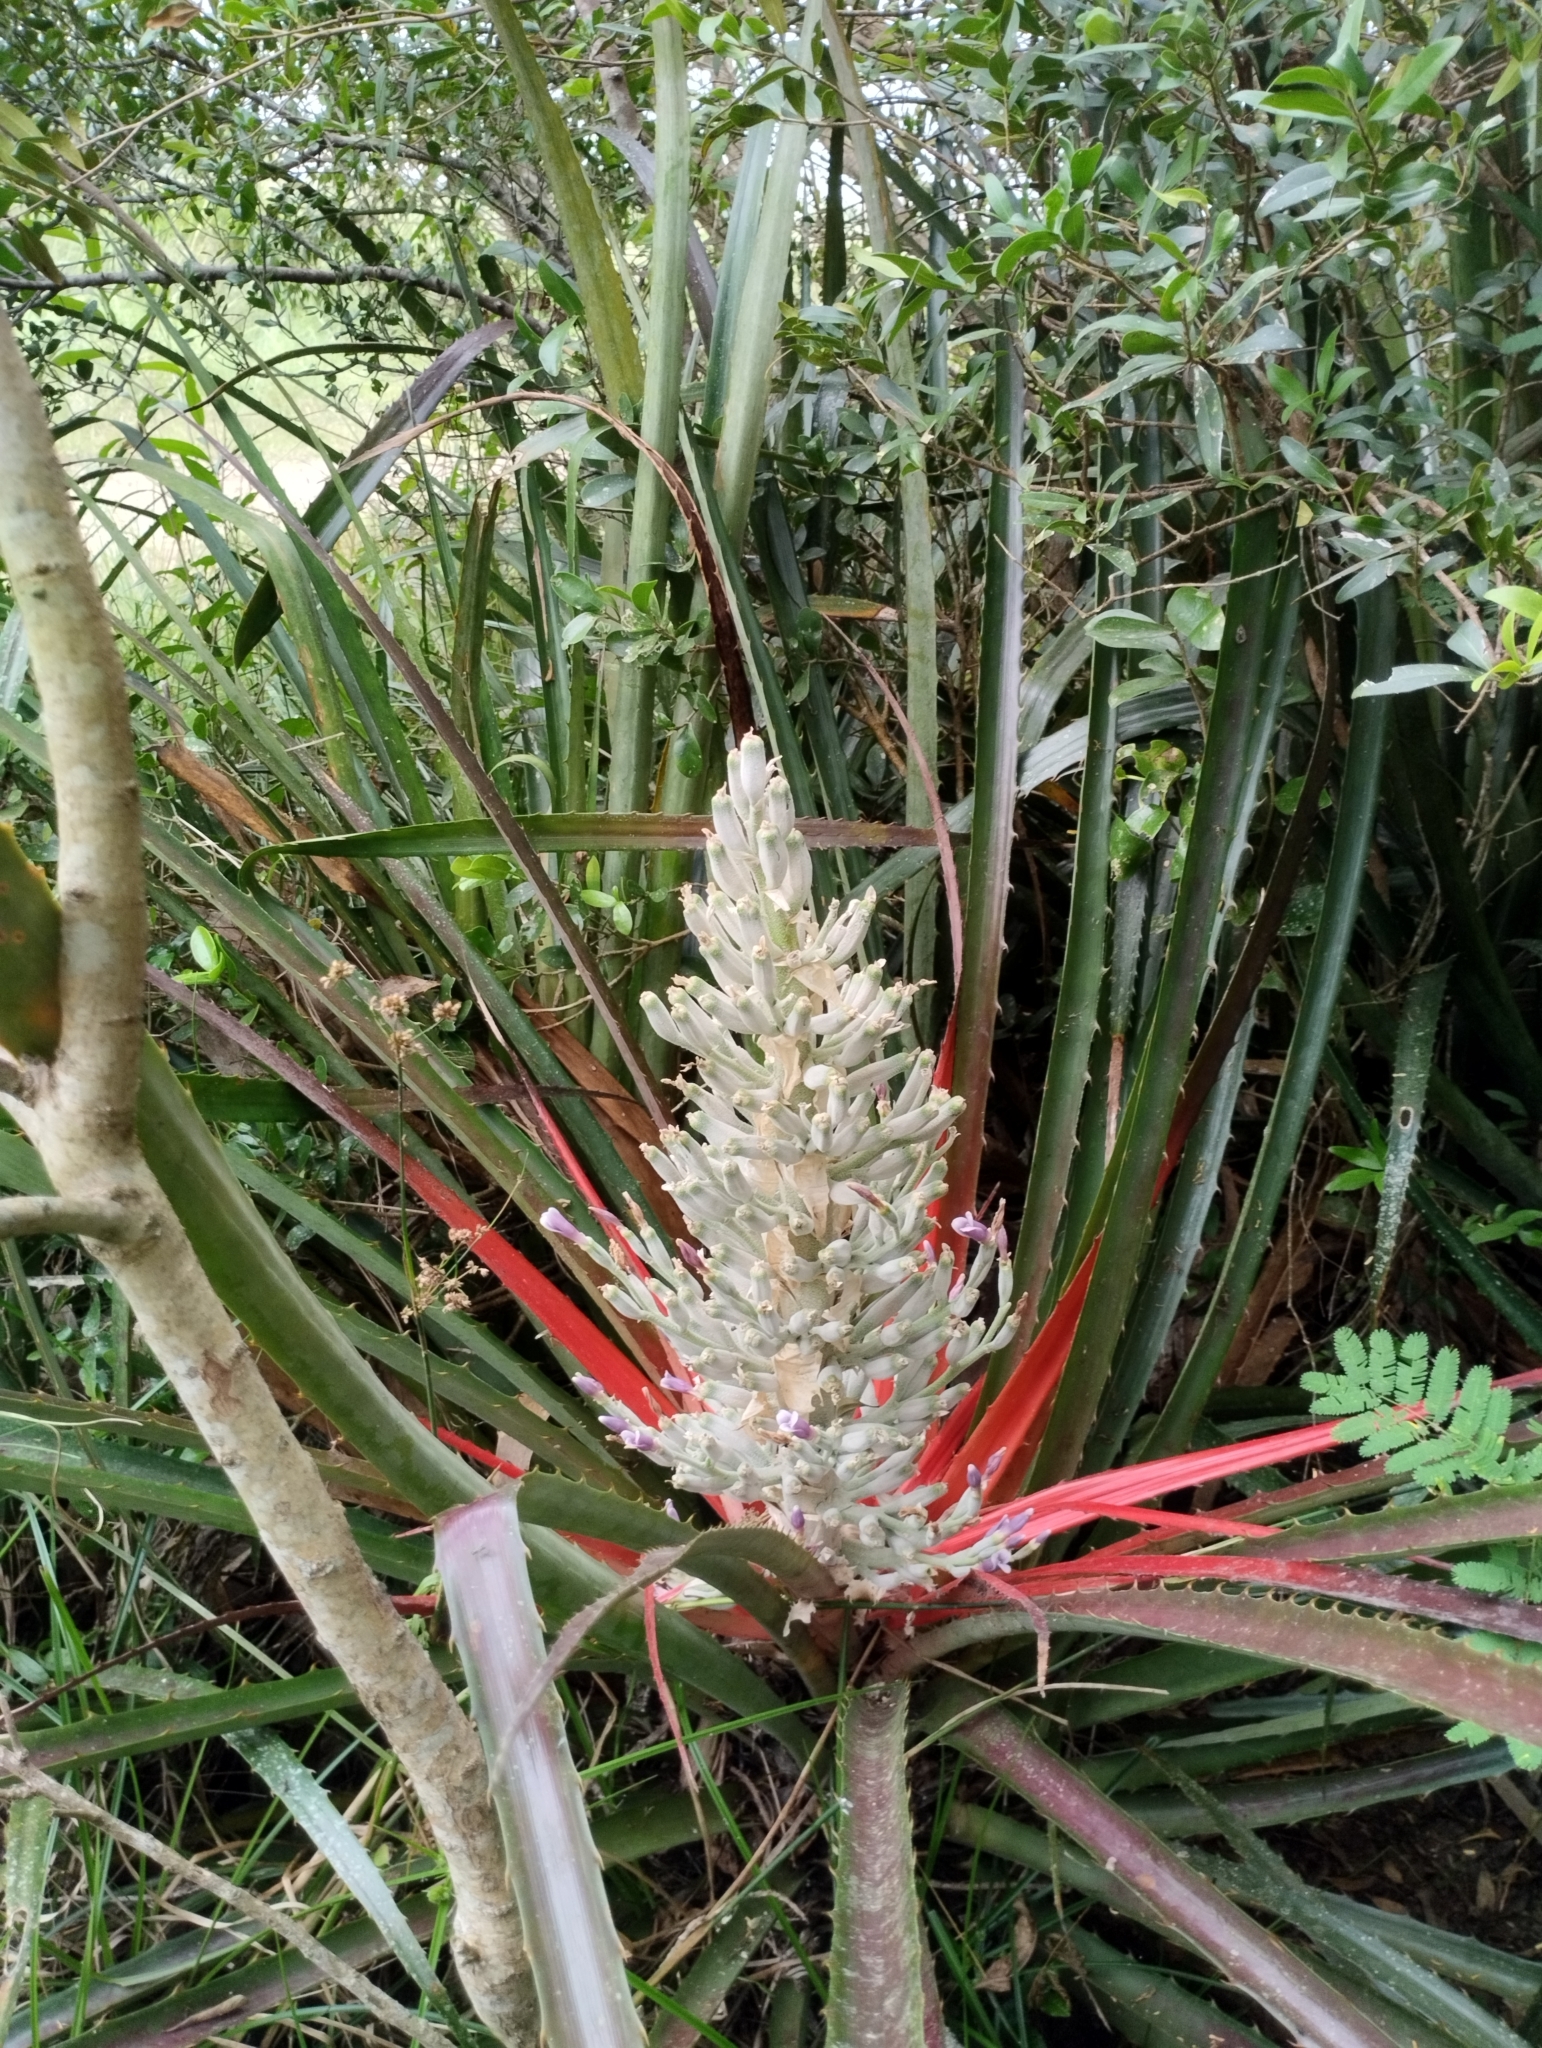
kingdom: Plantae
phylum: Tracheophyta
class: Liliopsida
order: Poales
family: Bromeliaceae
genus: Bromelia
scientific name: Bromelia antiacantha
